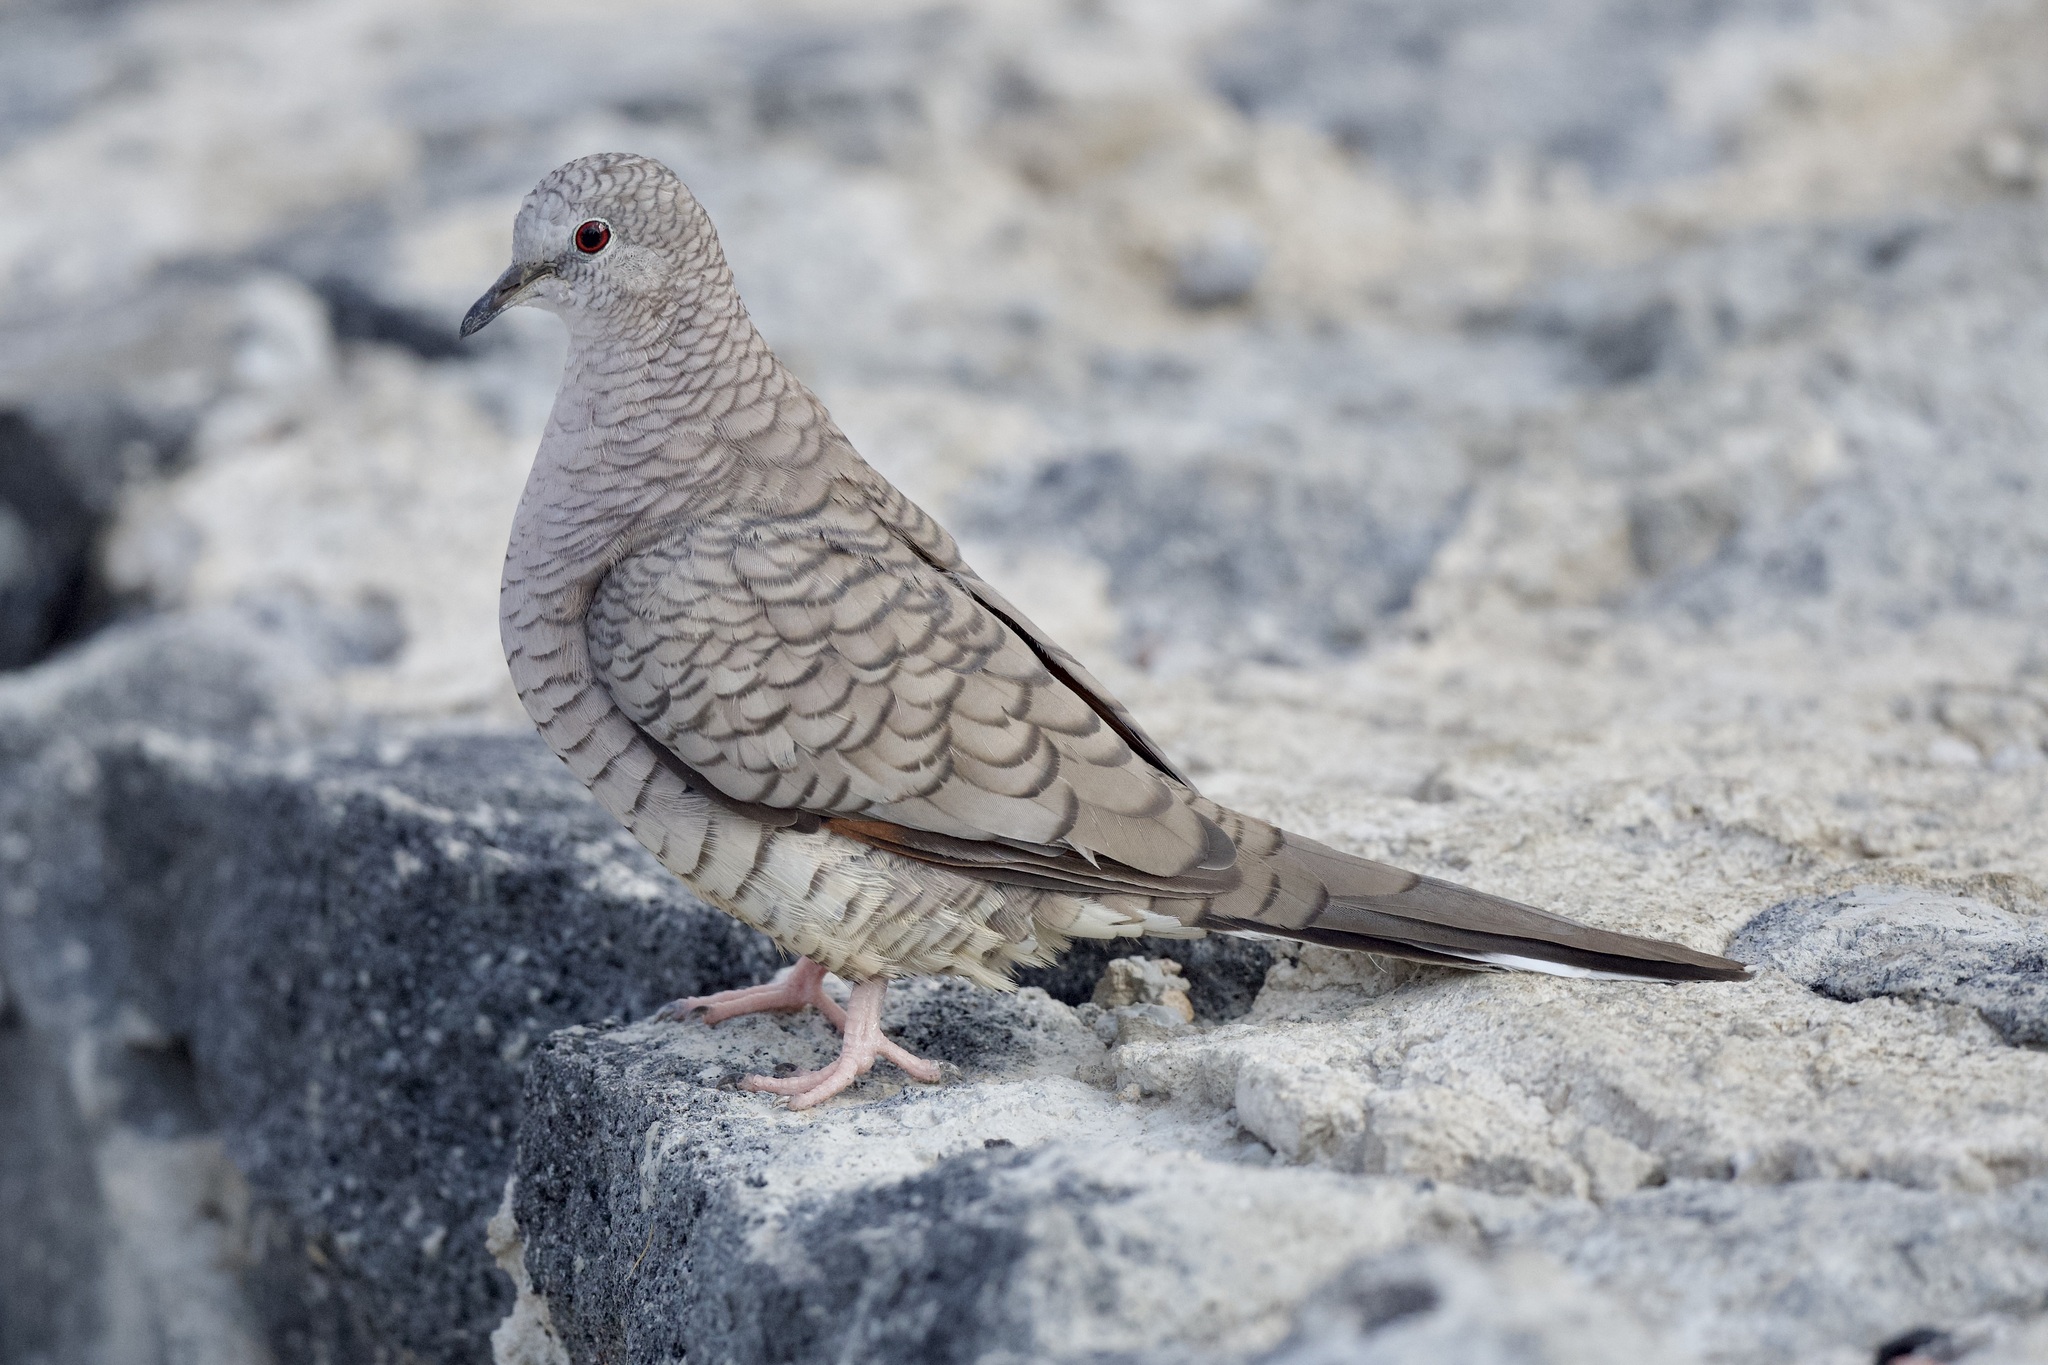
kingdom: Animalia
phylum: Chordata
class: Aves
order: Columbiformes
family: Columbidae
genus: Columbina
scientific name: Columbina inca
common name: Inca dove
